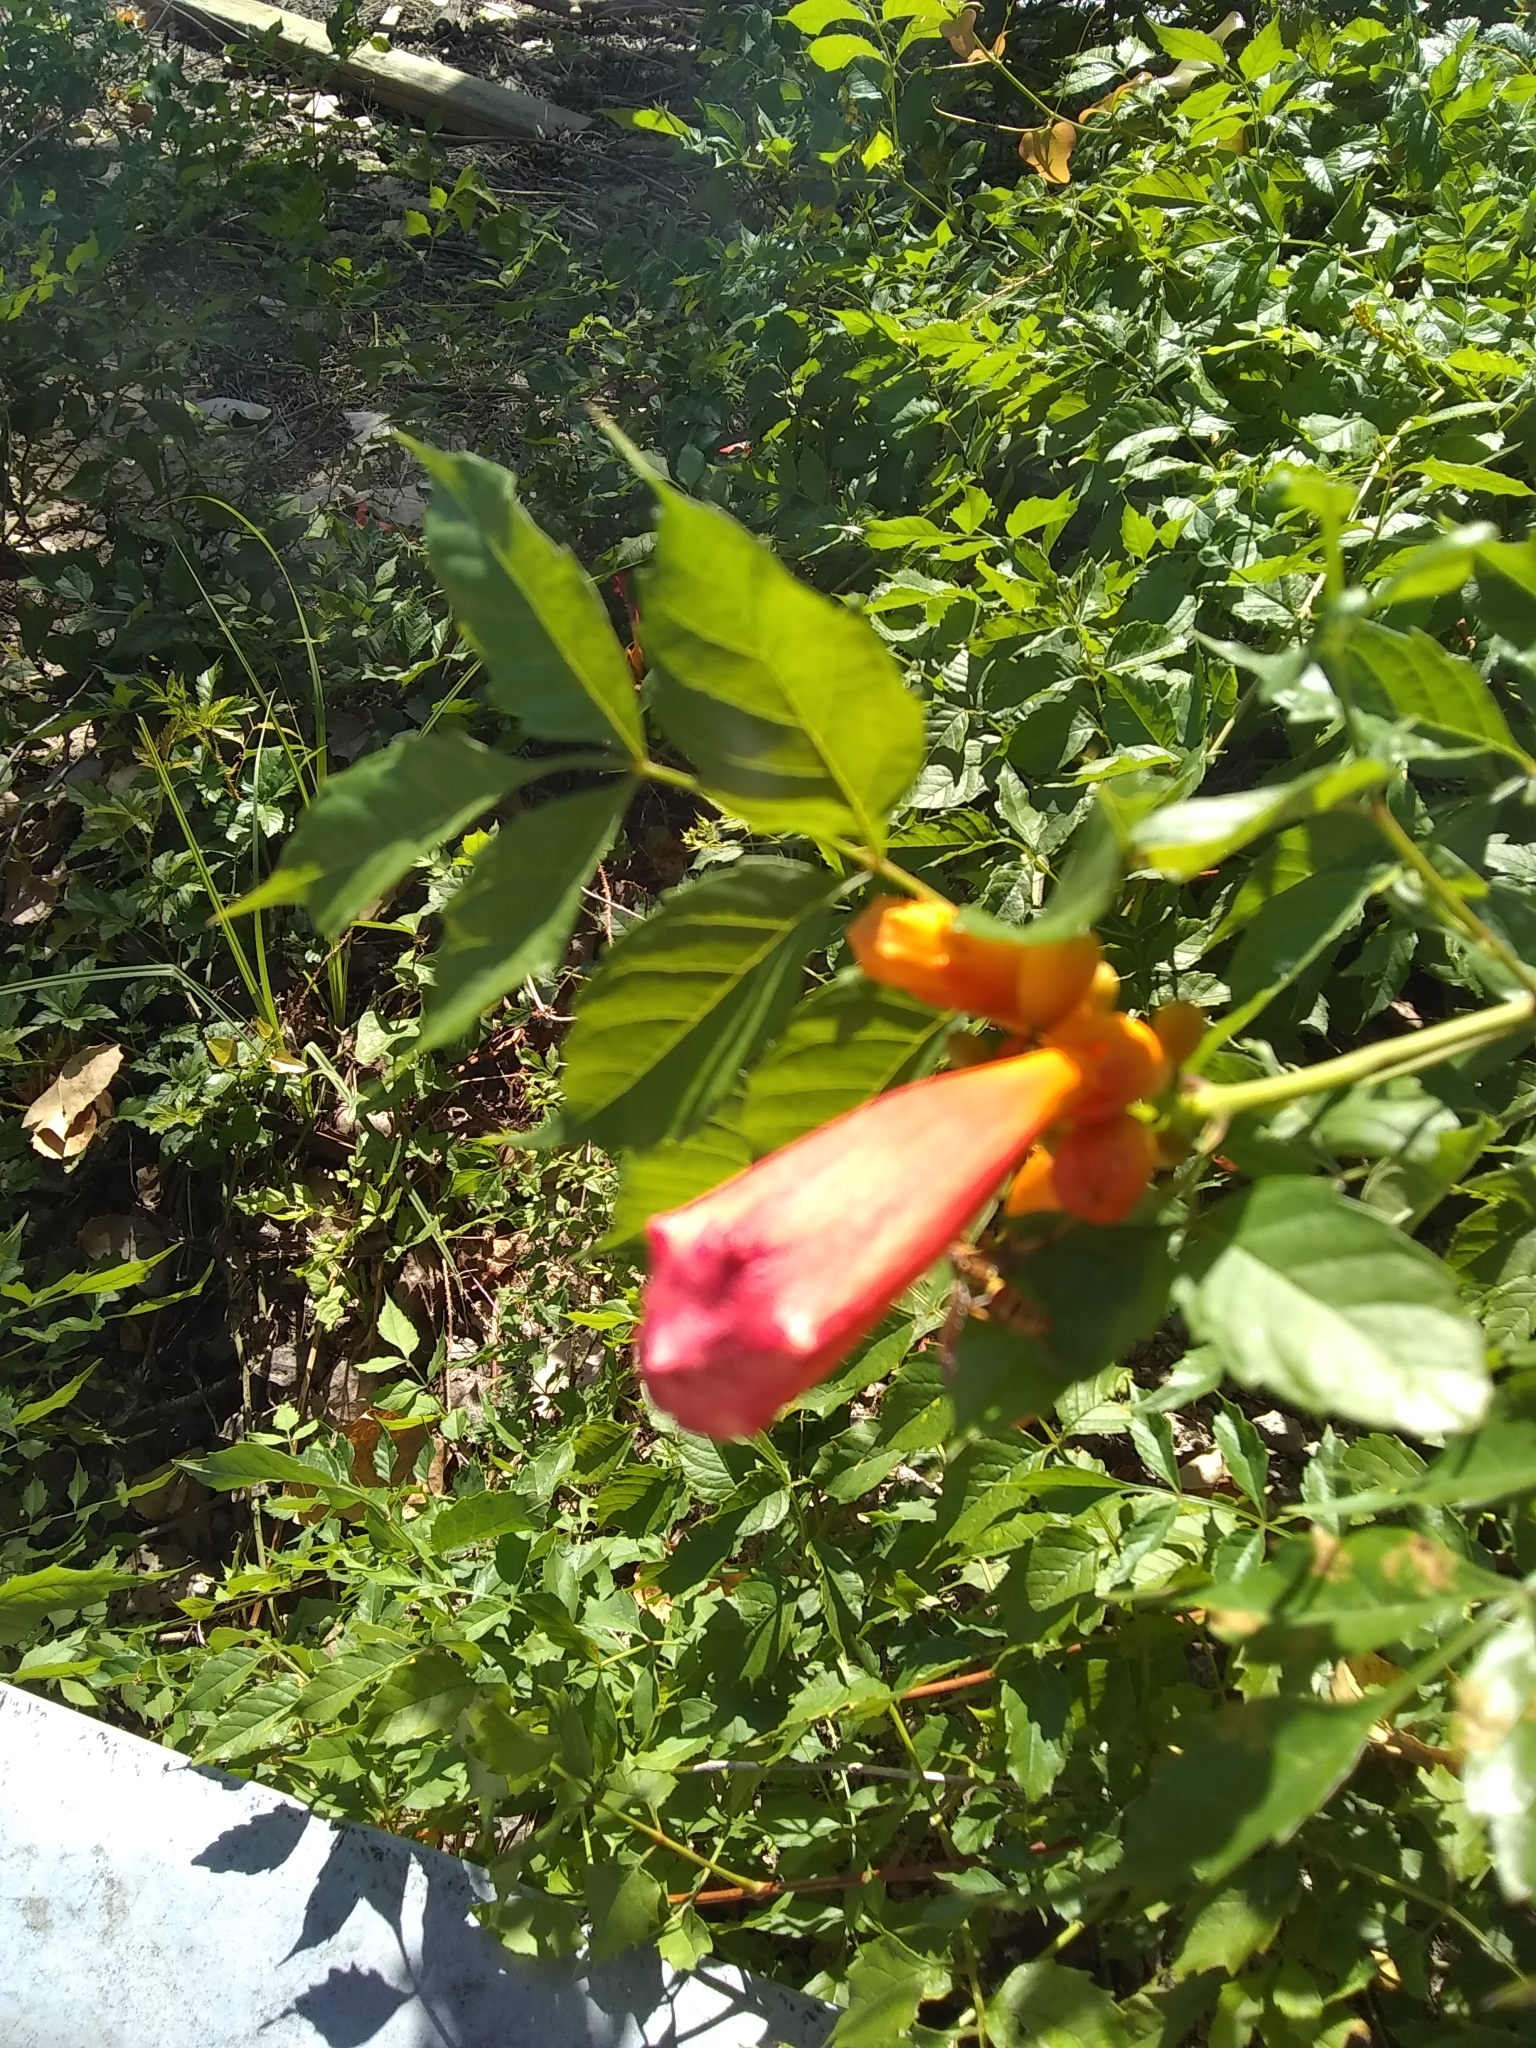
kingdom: Plantae
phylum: Tracheophyta
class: Magnoliopsida
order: Lamiales
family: Bignoniaceae
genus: Campsis
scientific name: Campsis radicans
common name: Trumpet-creeper
